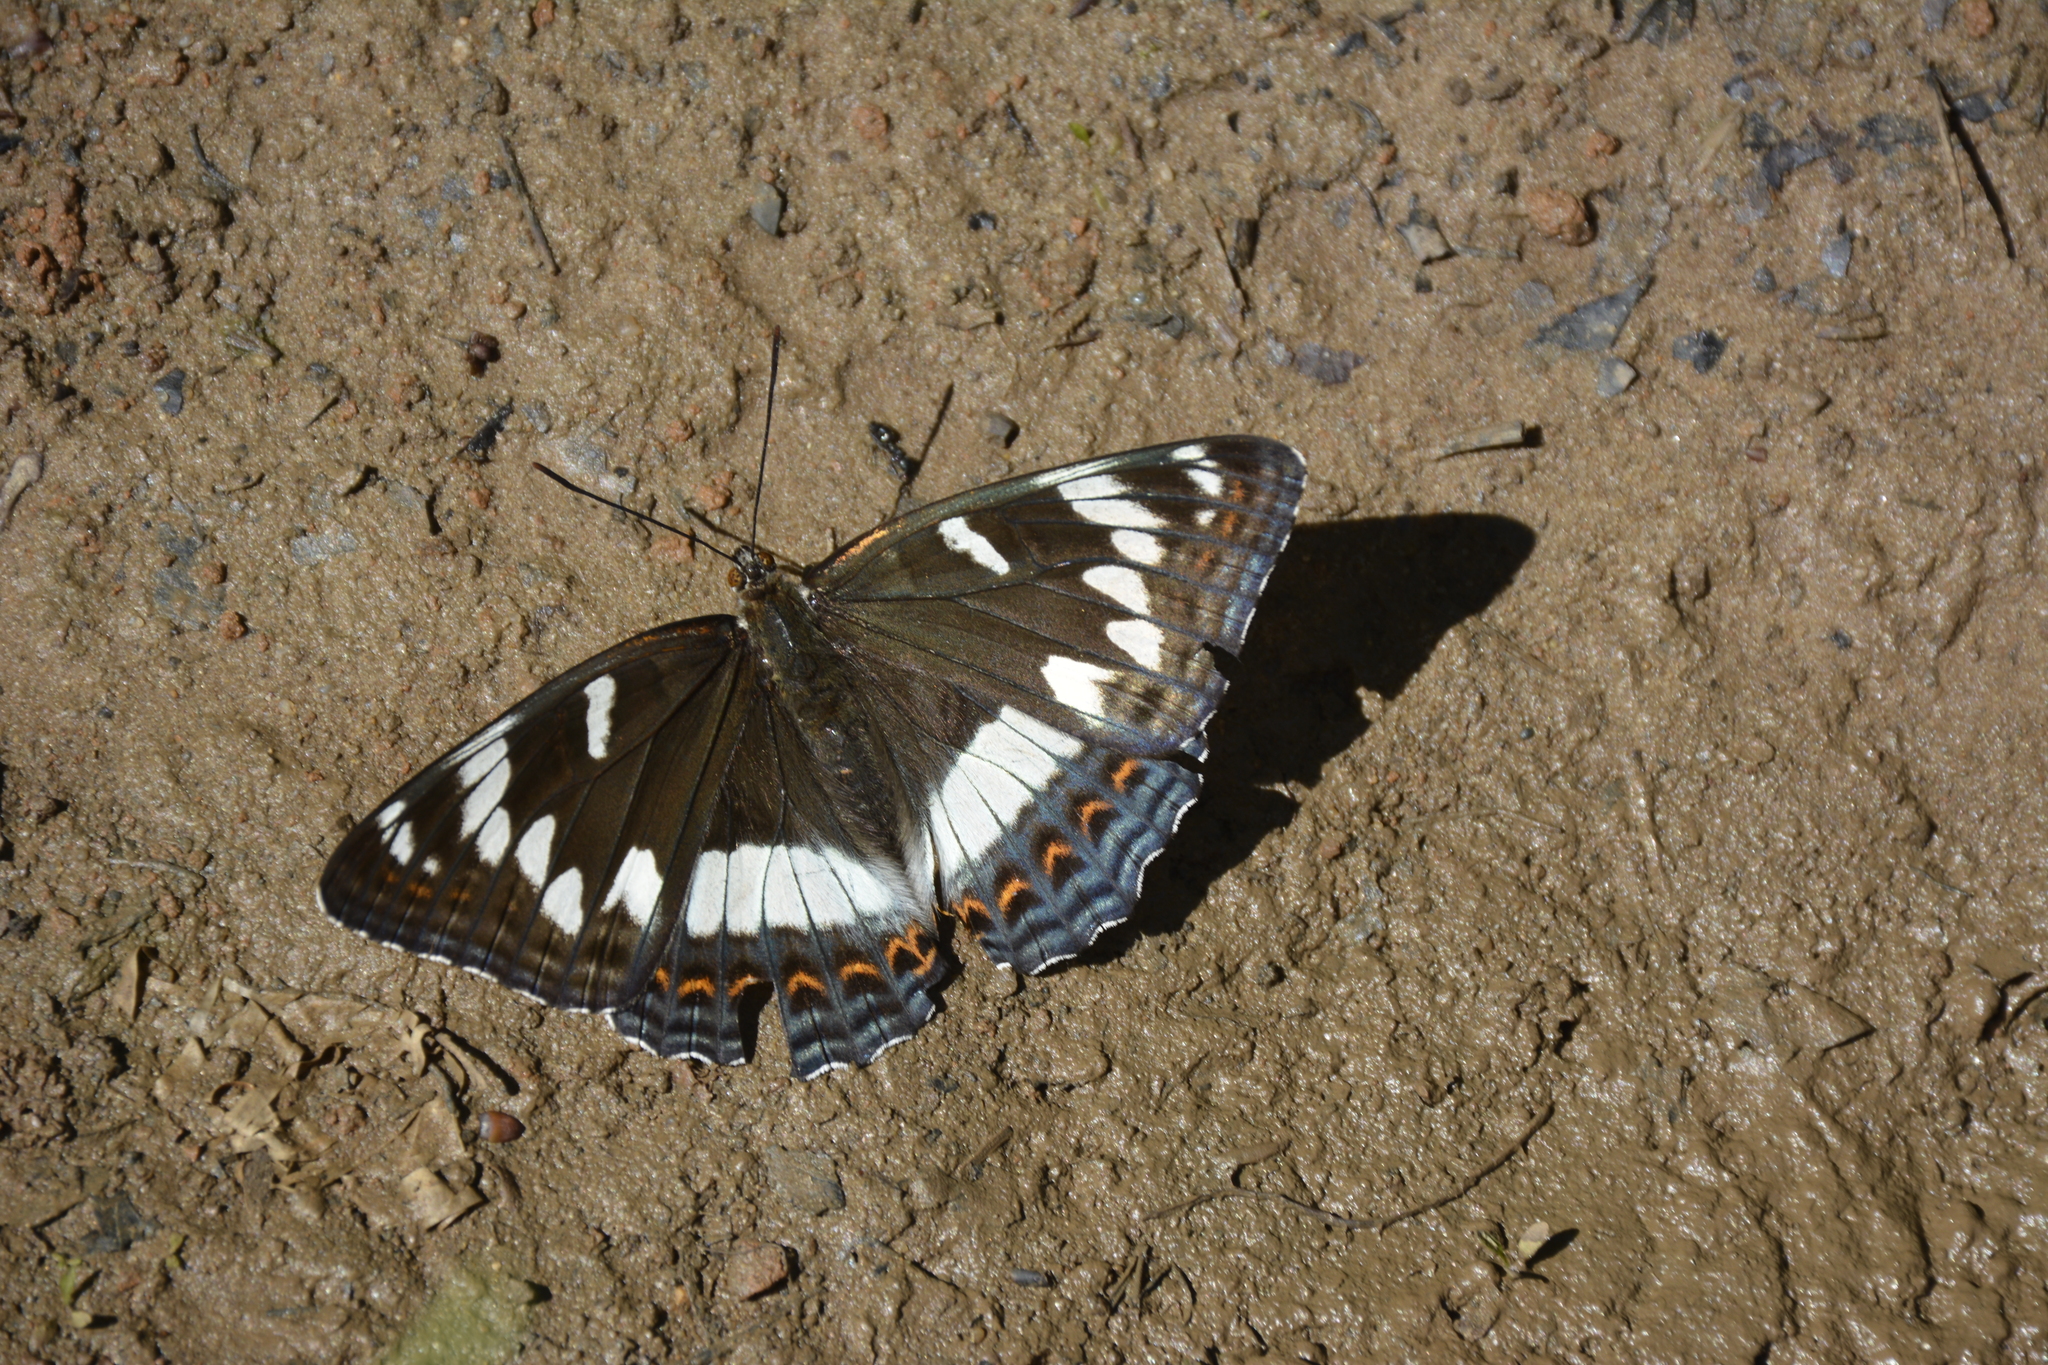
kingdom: Animalia
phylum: Arthropoda
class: Insecta
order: Lepidoptera
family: Nymphalidae
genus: Limenitis
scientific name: Limenitis populi
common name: Poplar admiral
